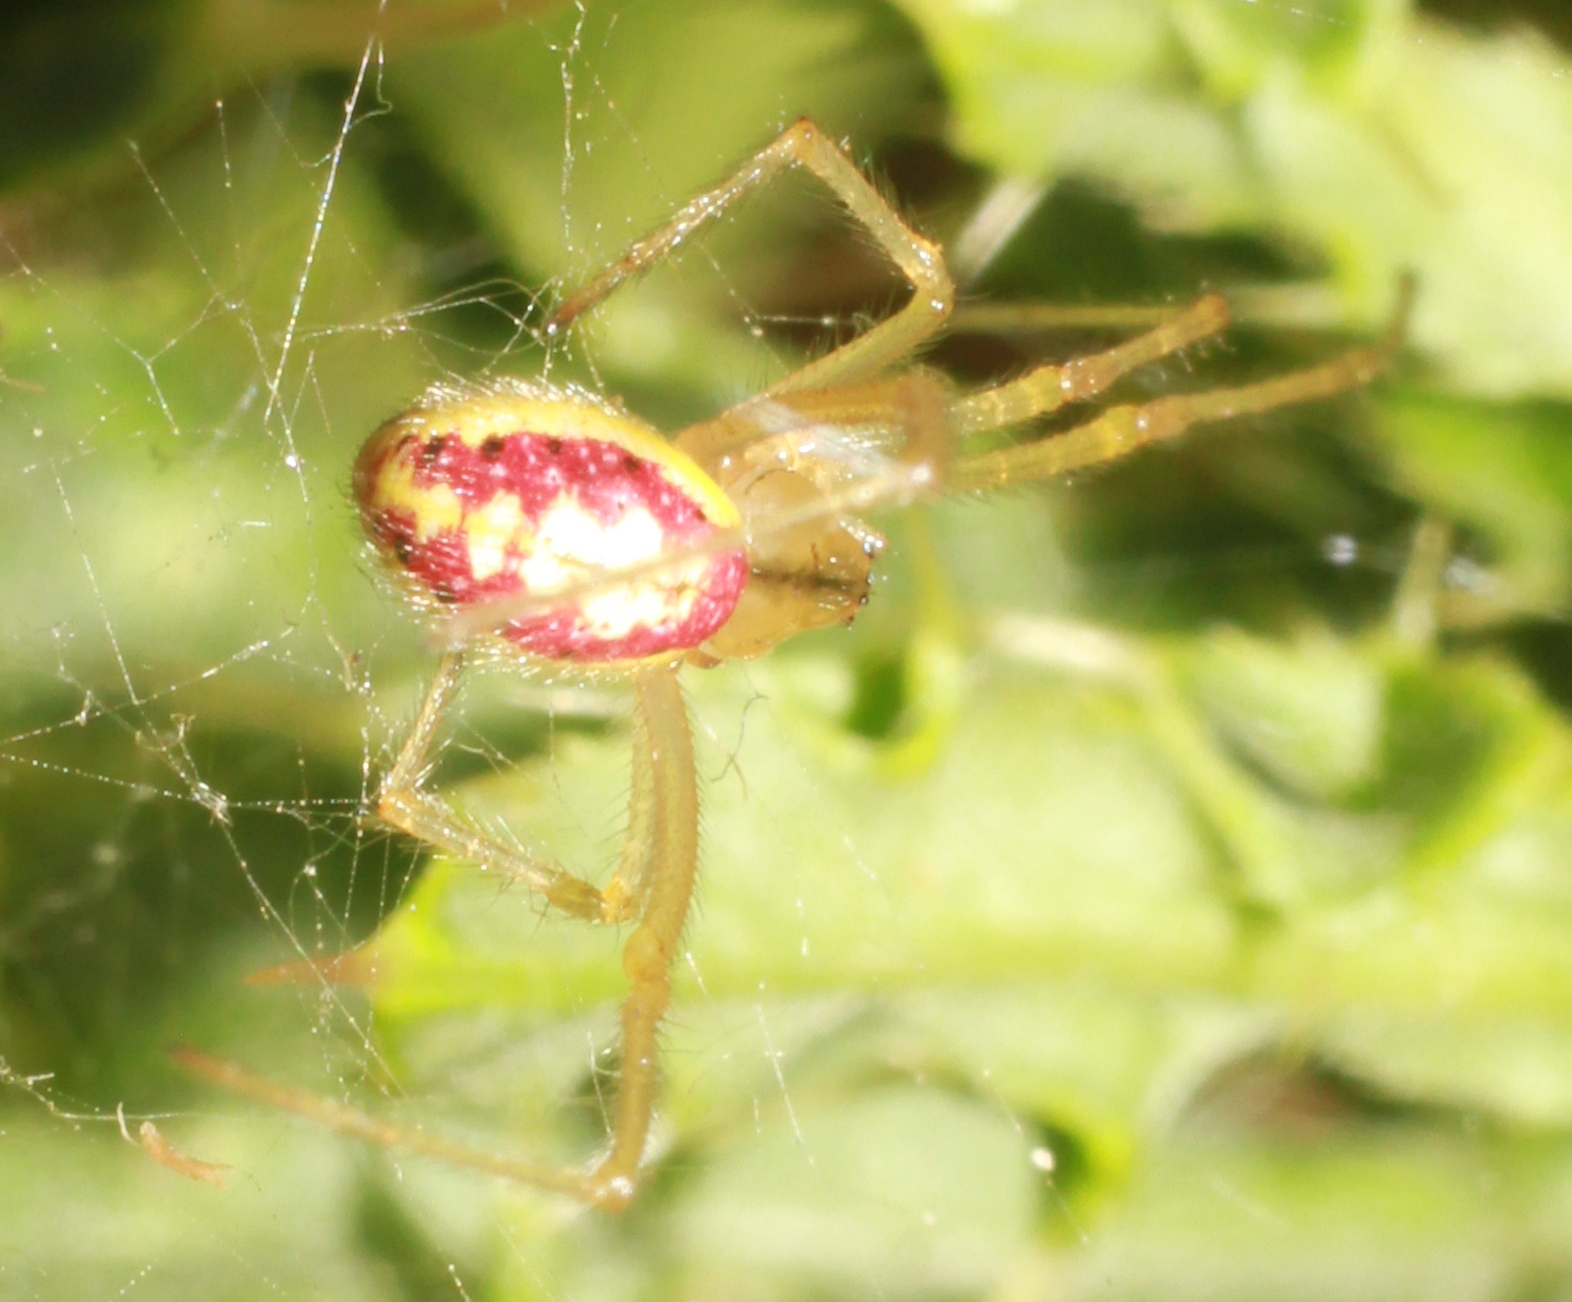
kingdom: Animalia
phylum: Arthropoda
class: Arachnida
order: Araneae
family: Theridiidae
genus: Enoplognatha
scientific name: Enoplognatha
